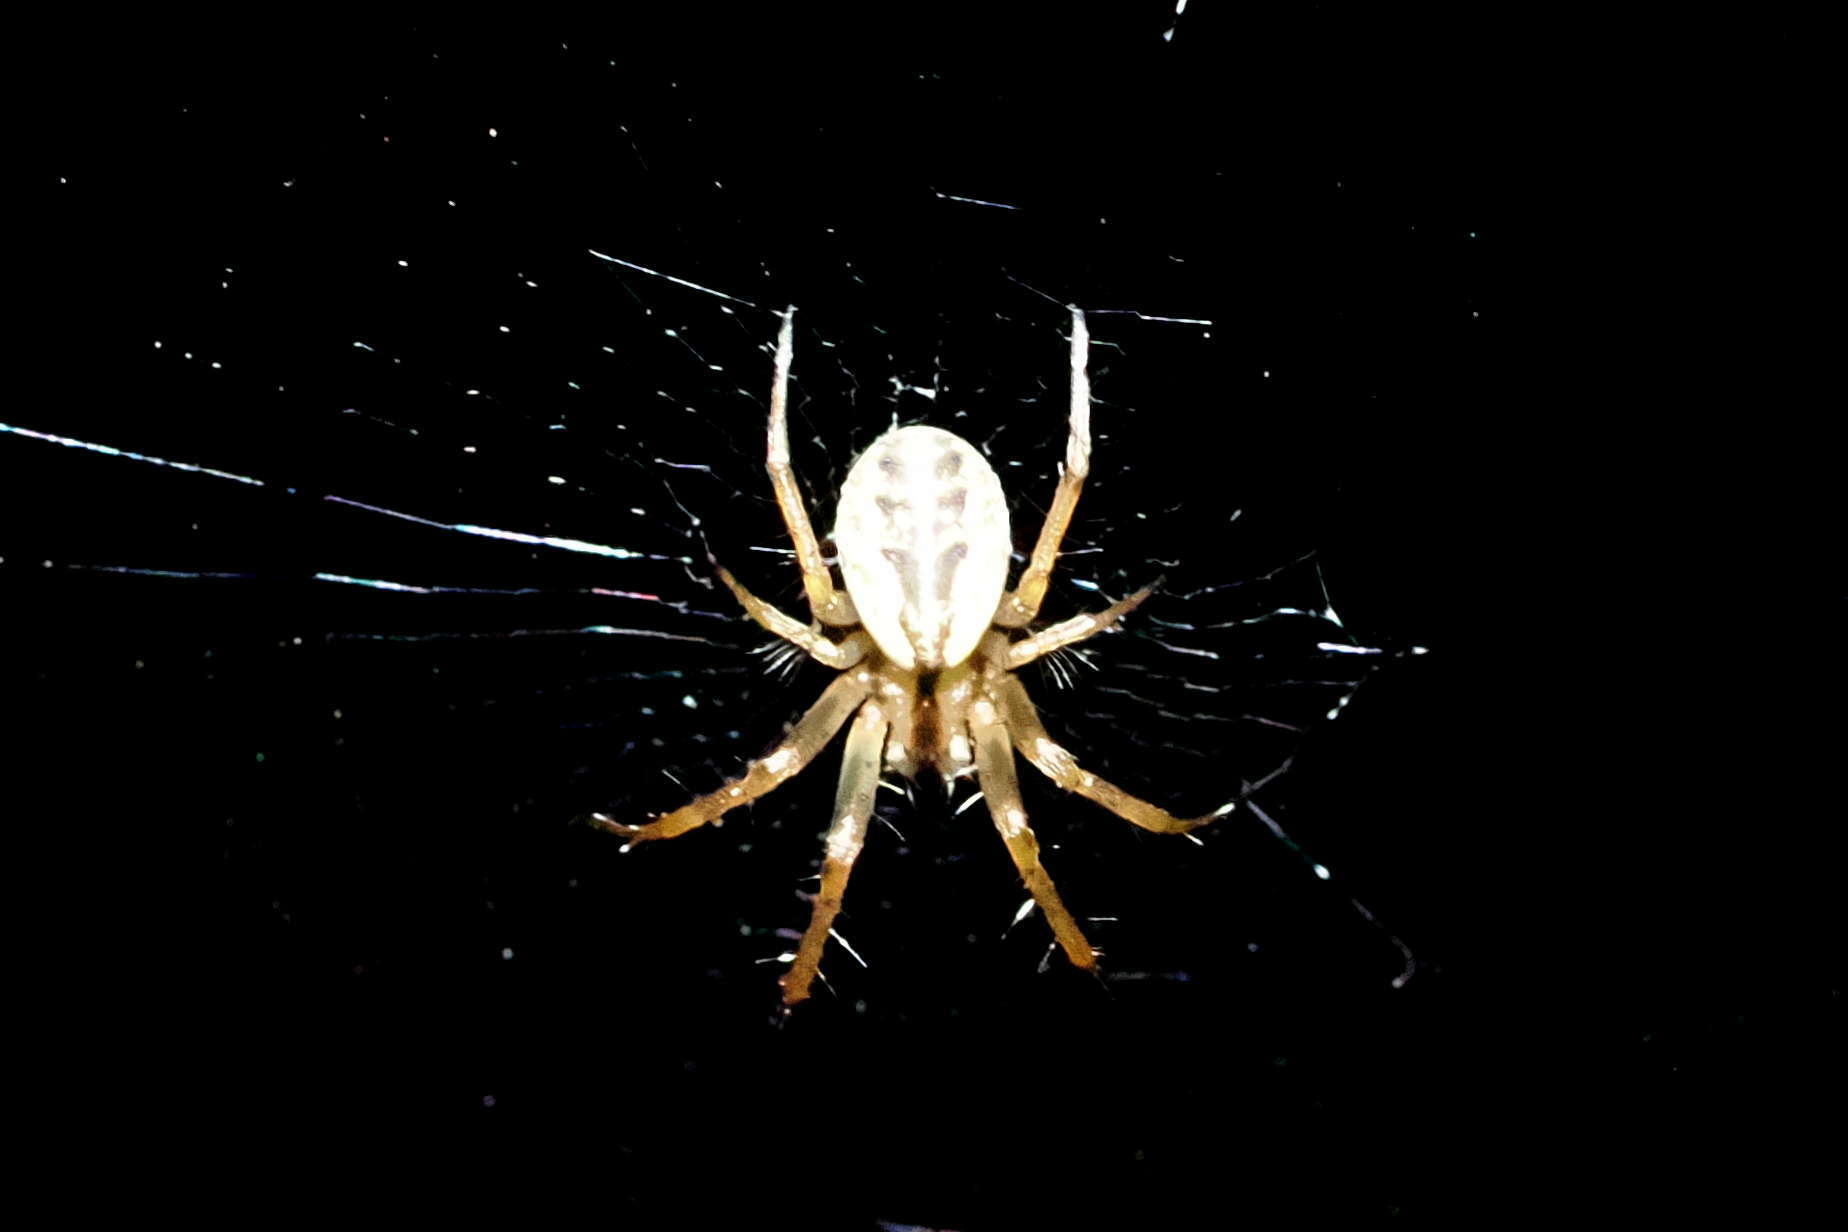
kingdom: Animalia
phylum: Arthropoda
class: Arachnida
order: Araneae
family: Araneidae
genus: Mangora
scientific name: Mangora placida
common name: Tuft-legged orbweaver
